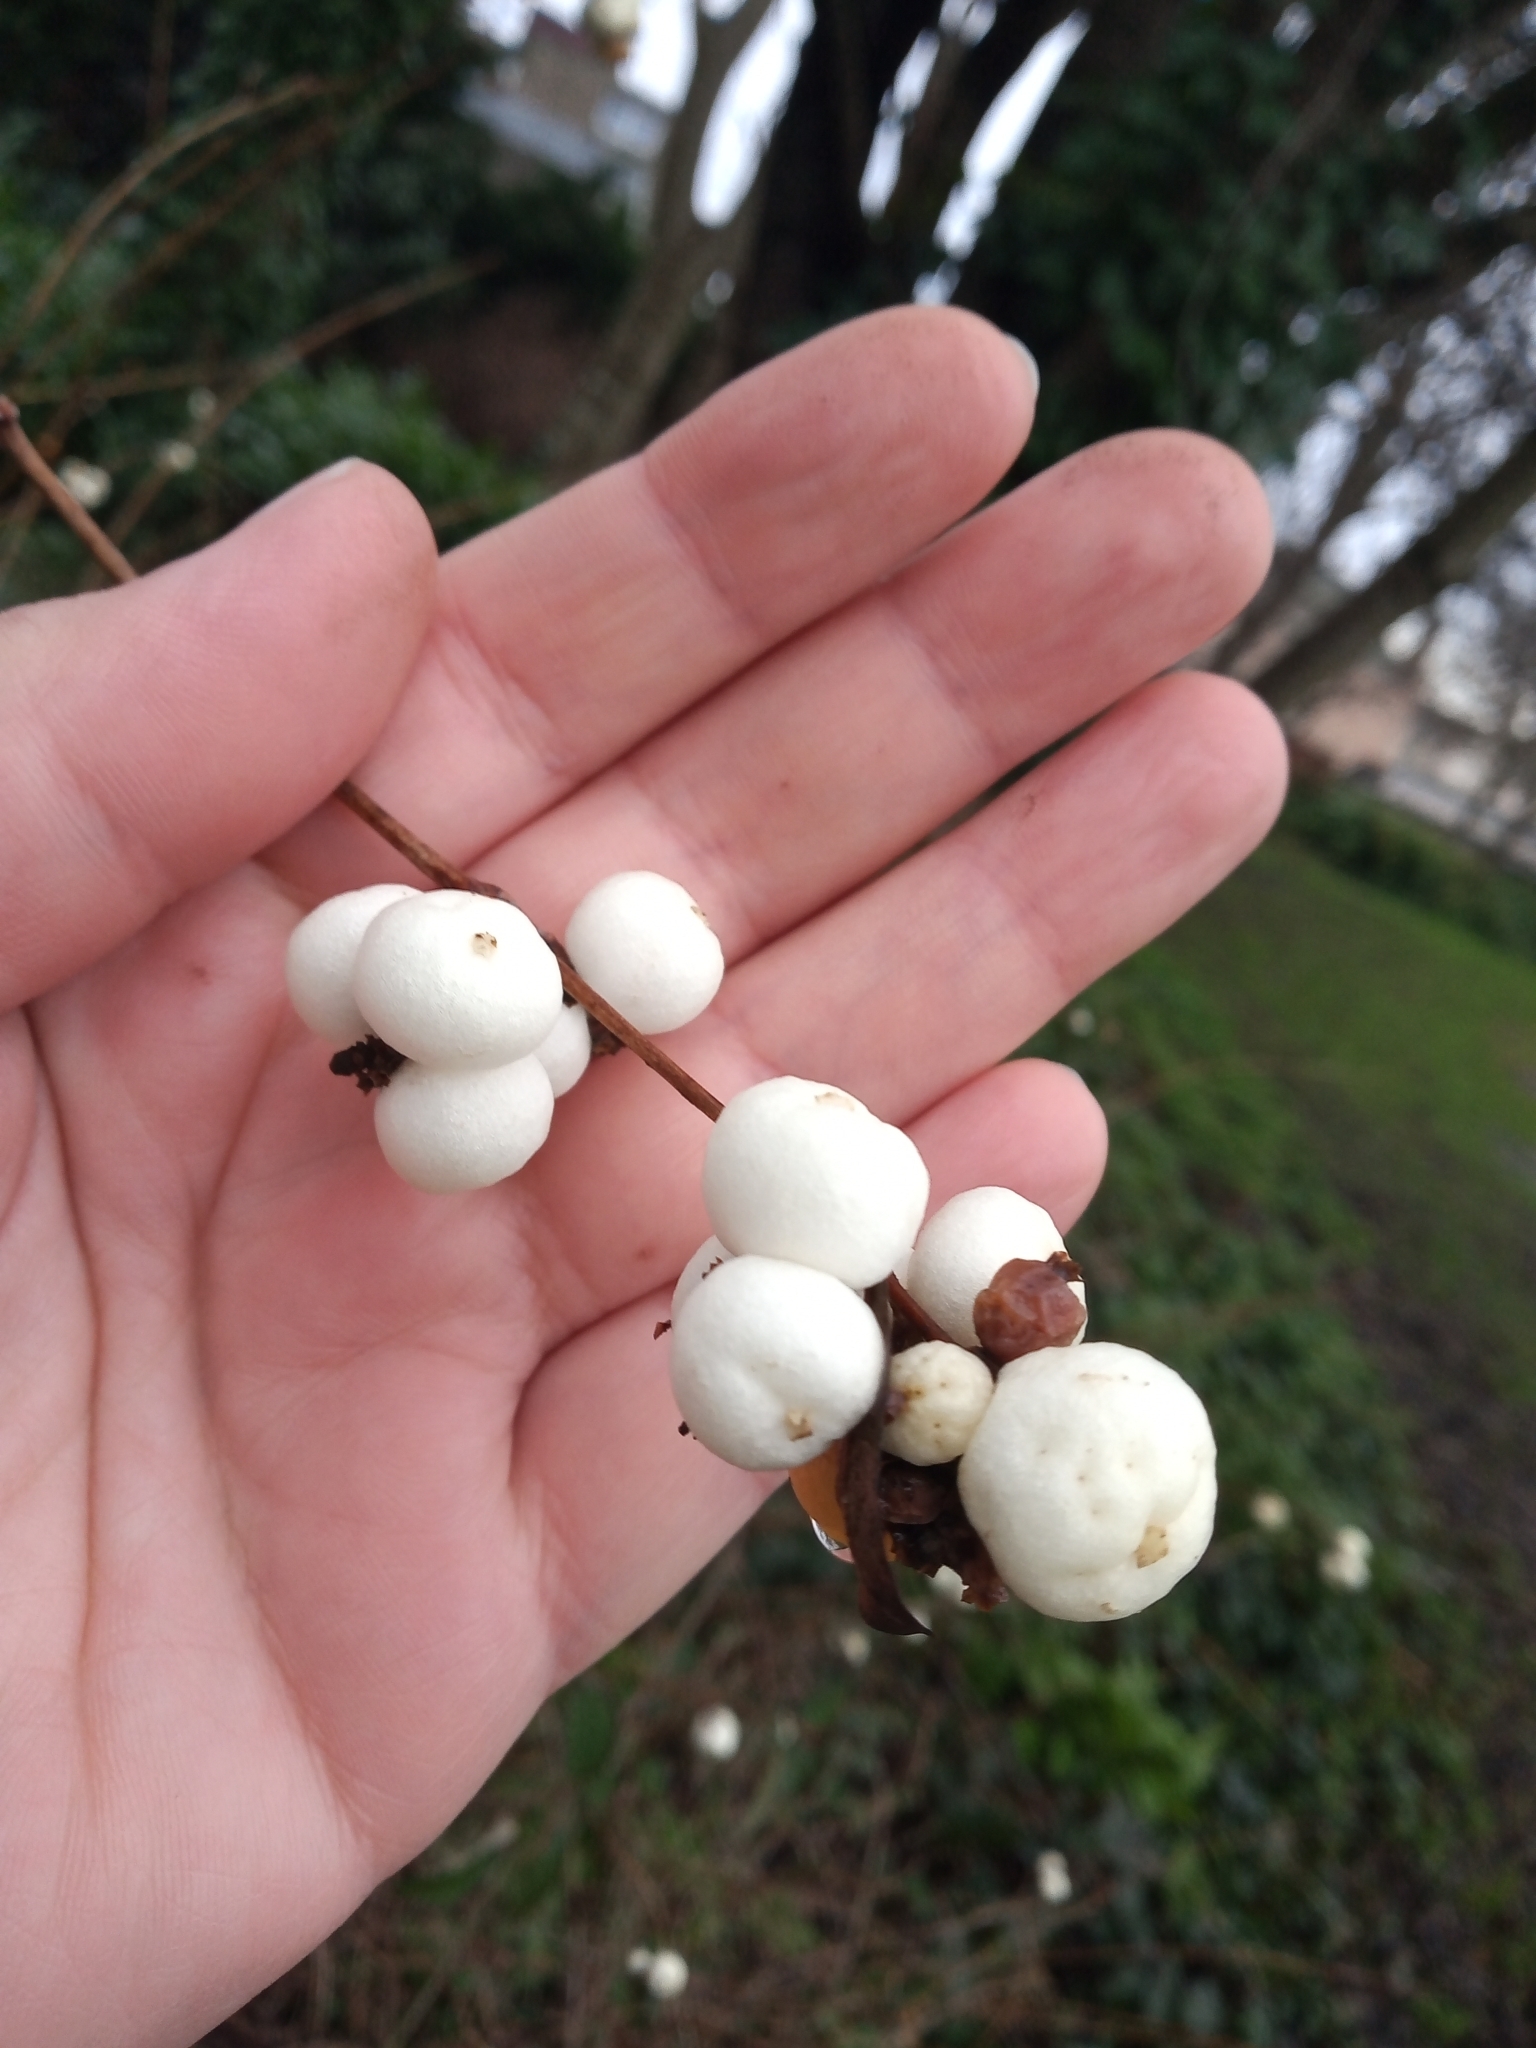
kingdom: Plantae
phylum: Tracheophyta
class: Magnoliopsida
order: Dipsacales
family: Caprifoliaceae
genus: Symphoricarpos
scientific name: Symphoricarpos albus
